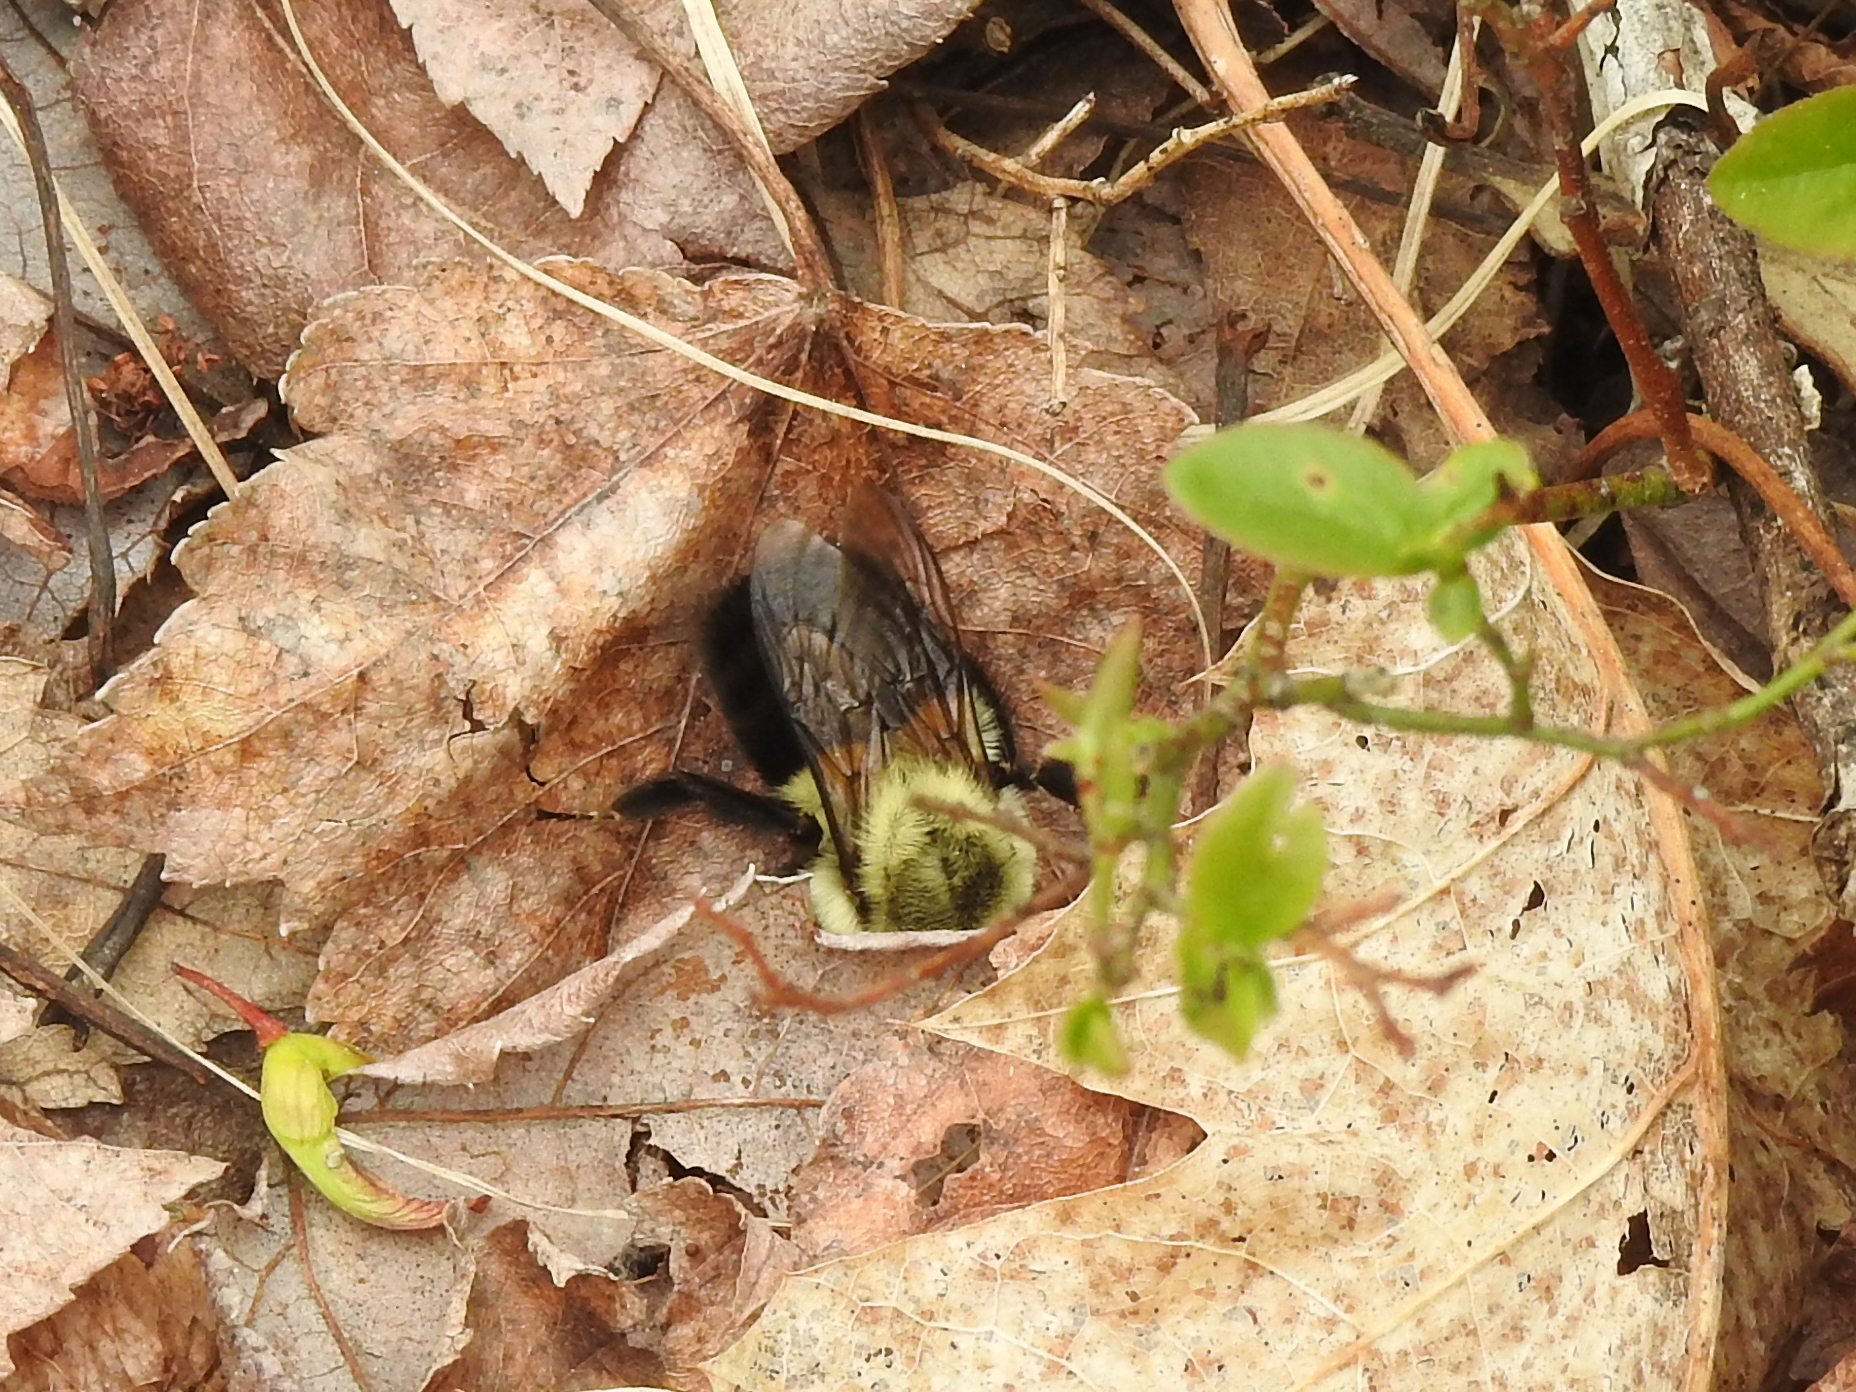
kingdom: Animalia
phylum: Arthropoda
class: Insecta
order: Hymenoptera
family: Apidae
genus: Bombus
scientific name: Bombus impatiens
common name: Common eastern bumble bee
